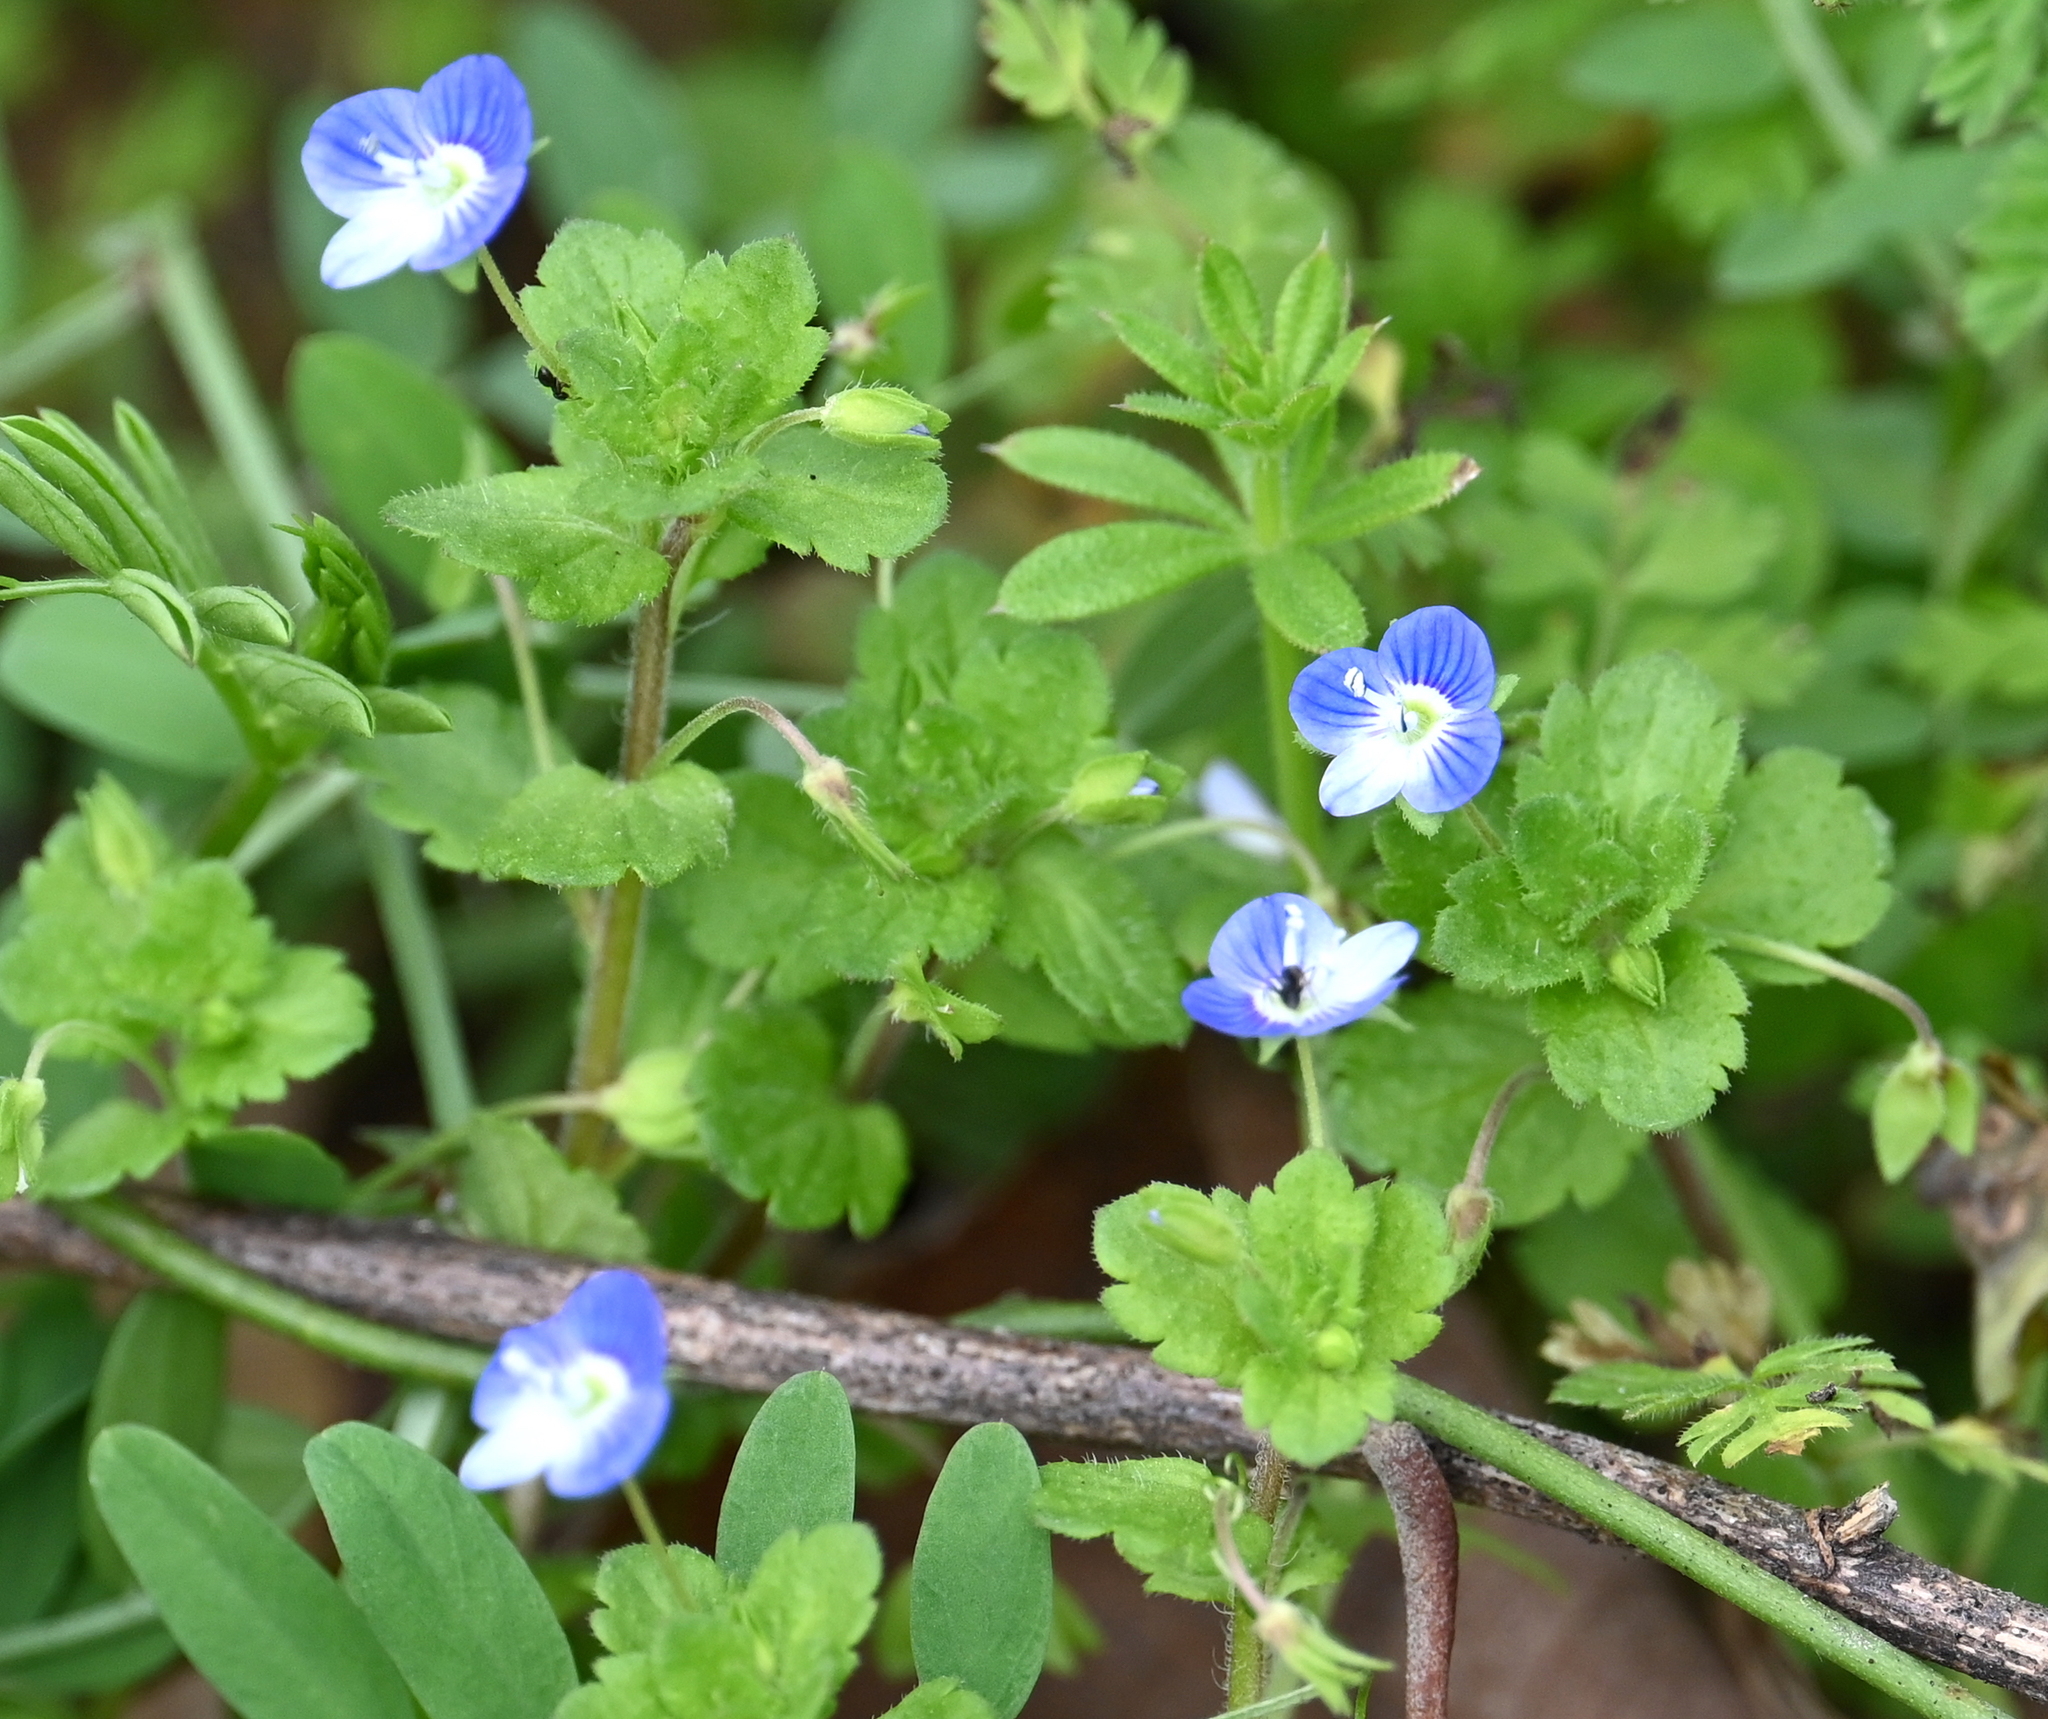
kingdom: Plantae
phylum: Tracheophyta
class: Magnoliopsida
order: Lamiales
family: Plantaginaceae
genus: Veronica
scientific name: Veronica persica
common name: Common field-speedwell
